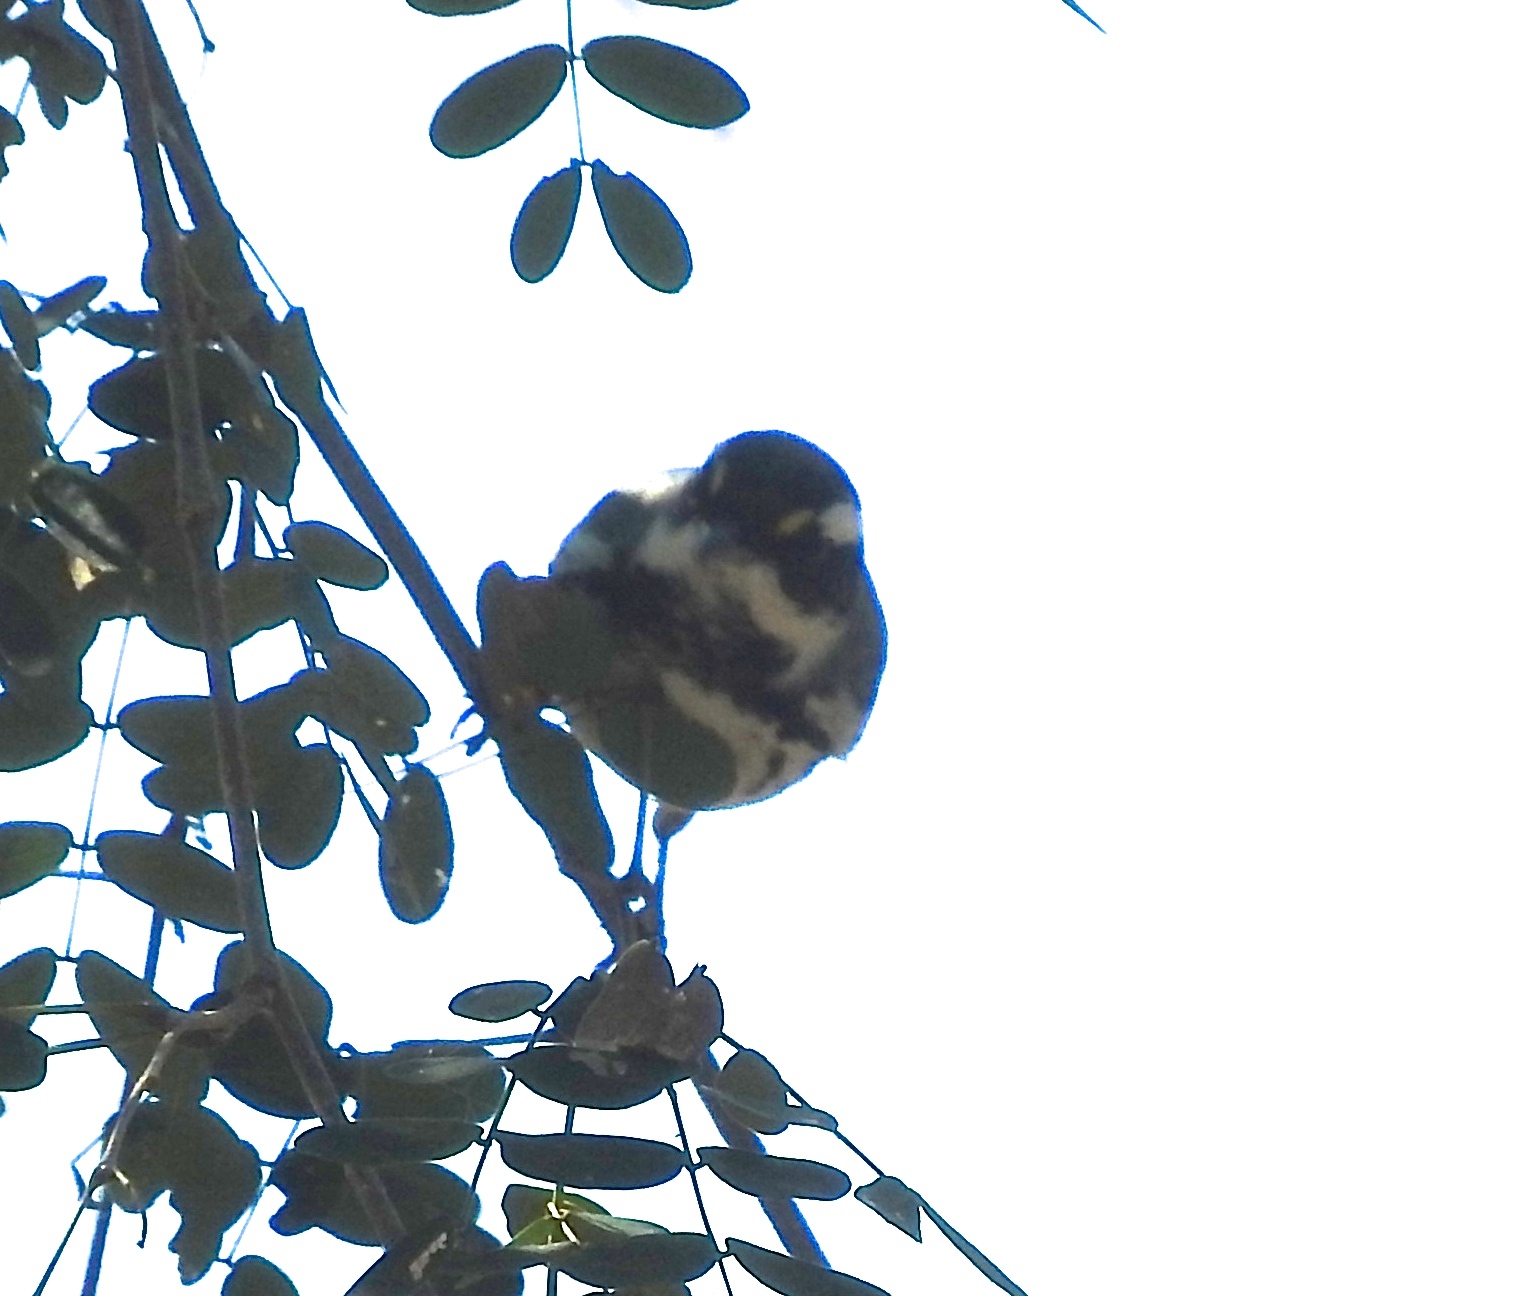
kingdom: Animalia
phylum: Chordata
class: Aves
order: Passeriformes
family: Parulidae
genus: Setophaga
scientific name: Setophaga nigrescens
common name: Black-throated gray warbler
